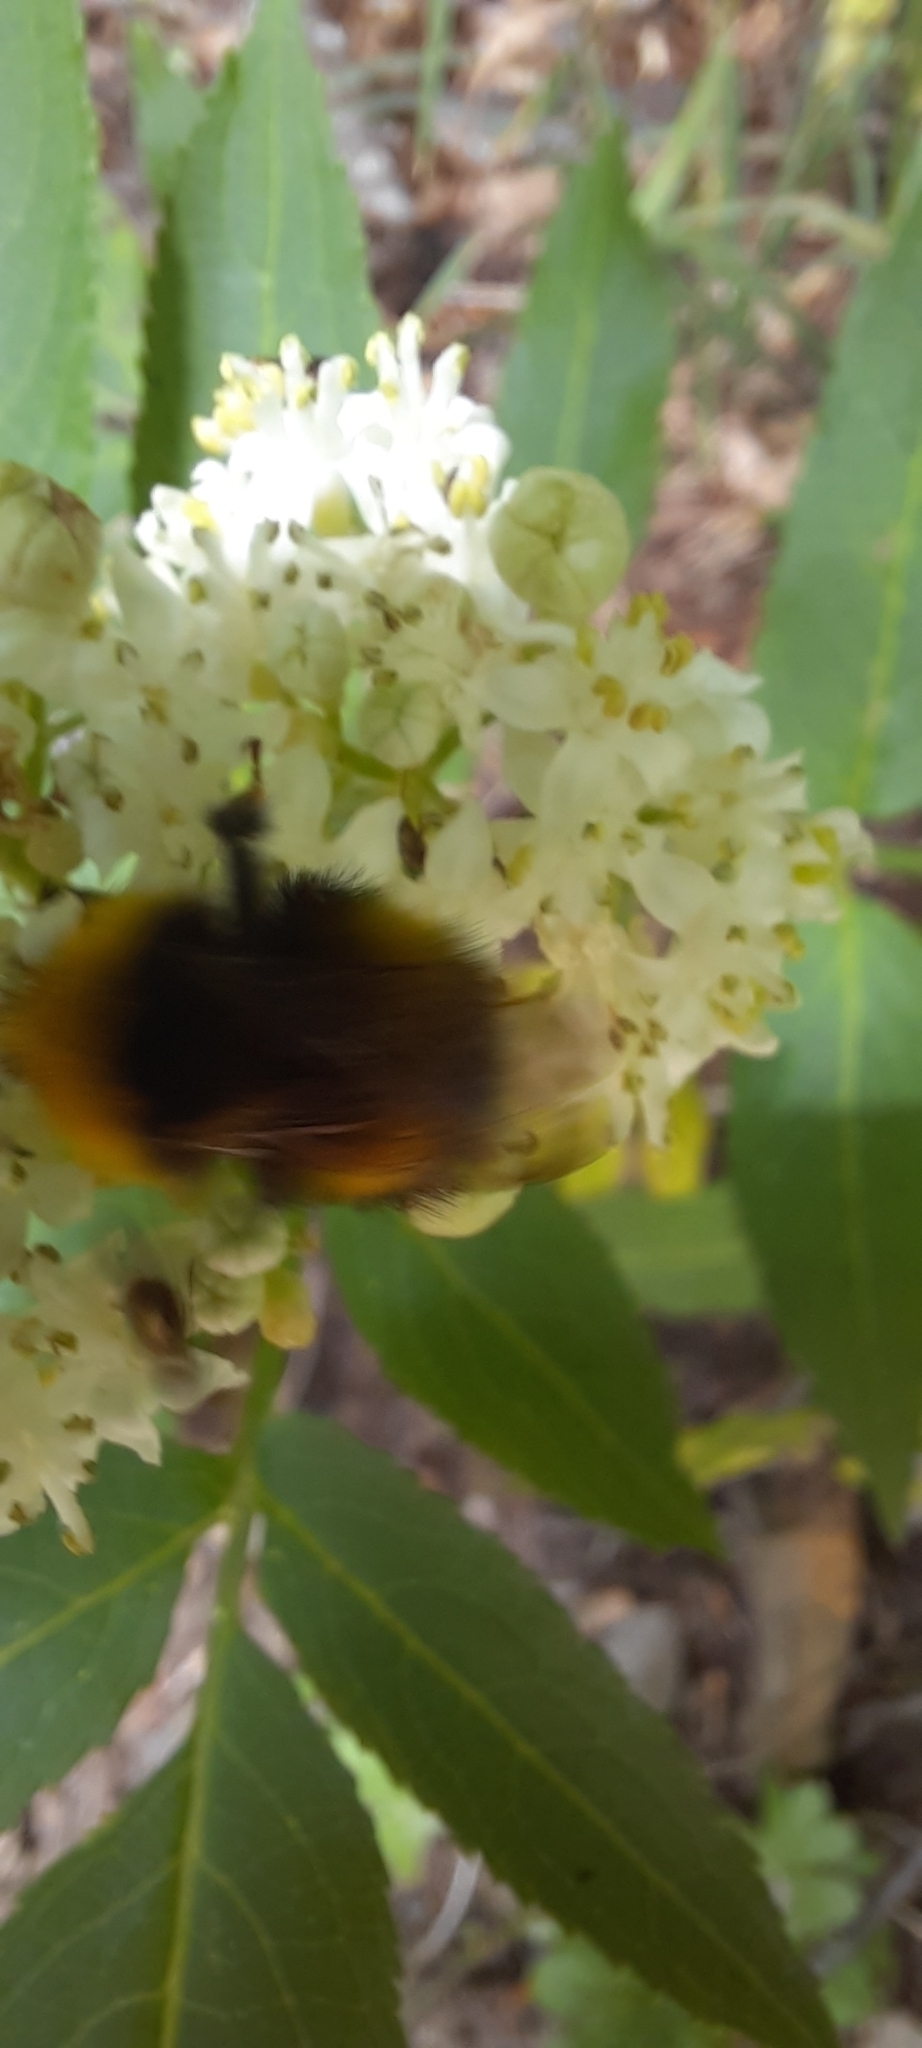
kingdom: Animalia
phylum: Arthropoda
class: Insecta
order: Hymenoptera
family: Apidae
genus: Bombus
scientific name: Bombus haematurus
